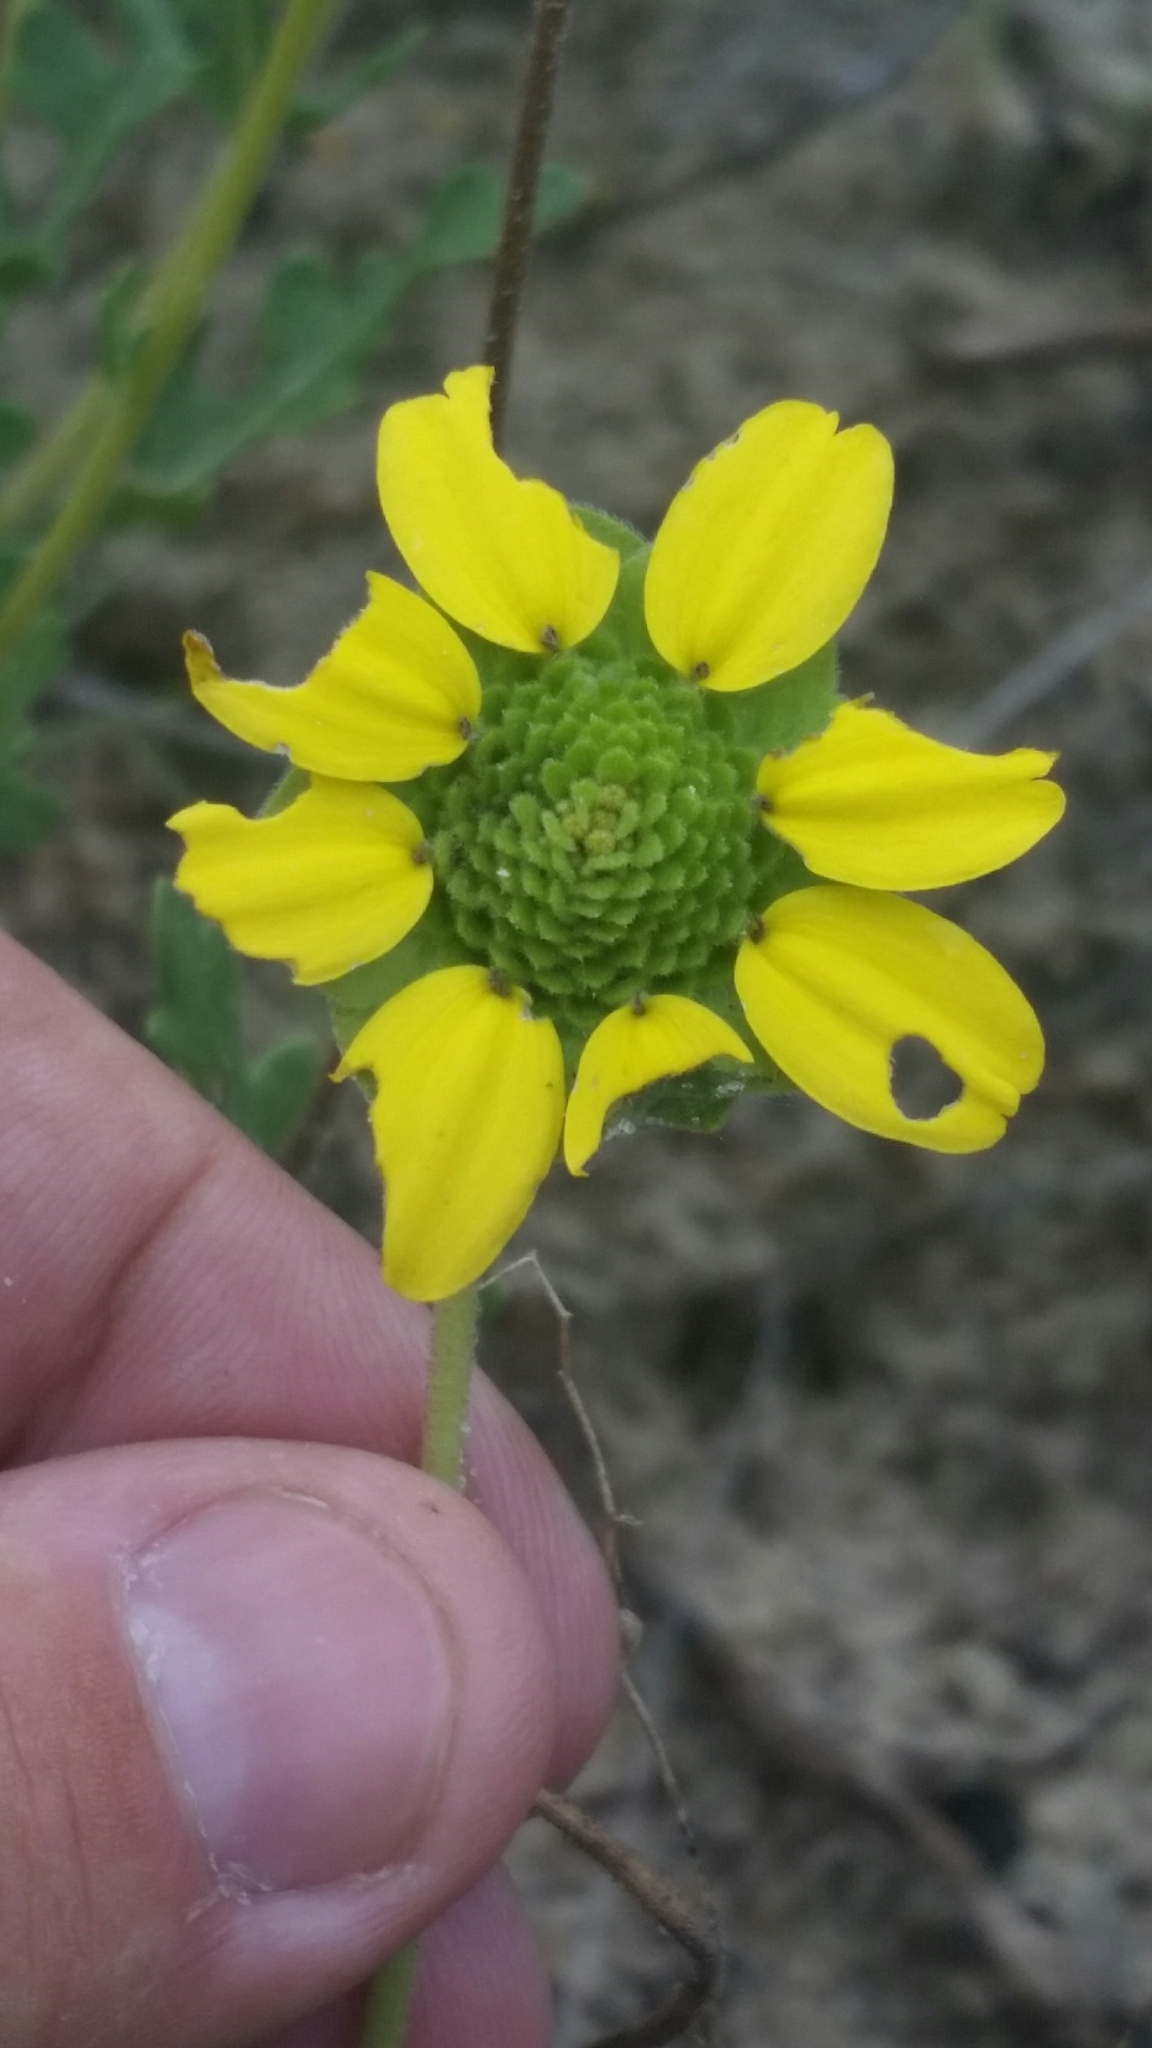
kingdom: Plantae
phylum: Tracheophyta
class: Magnoliopsida
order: Asterales
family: Asteraceae
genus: Berlandiera
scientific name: Berlandiera subacaulis
